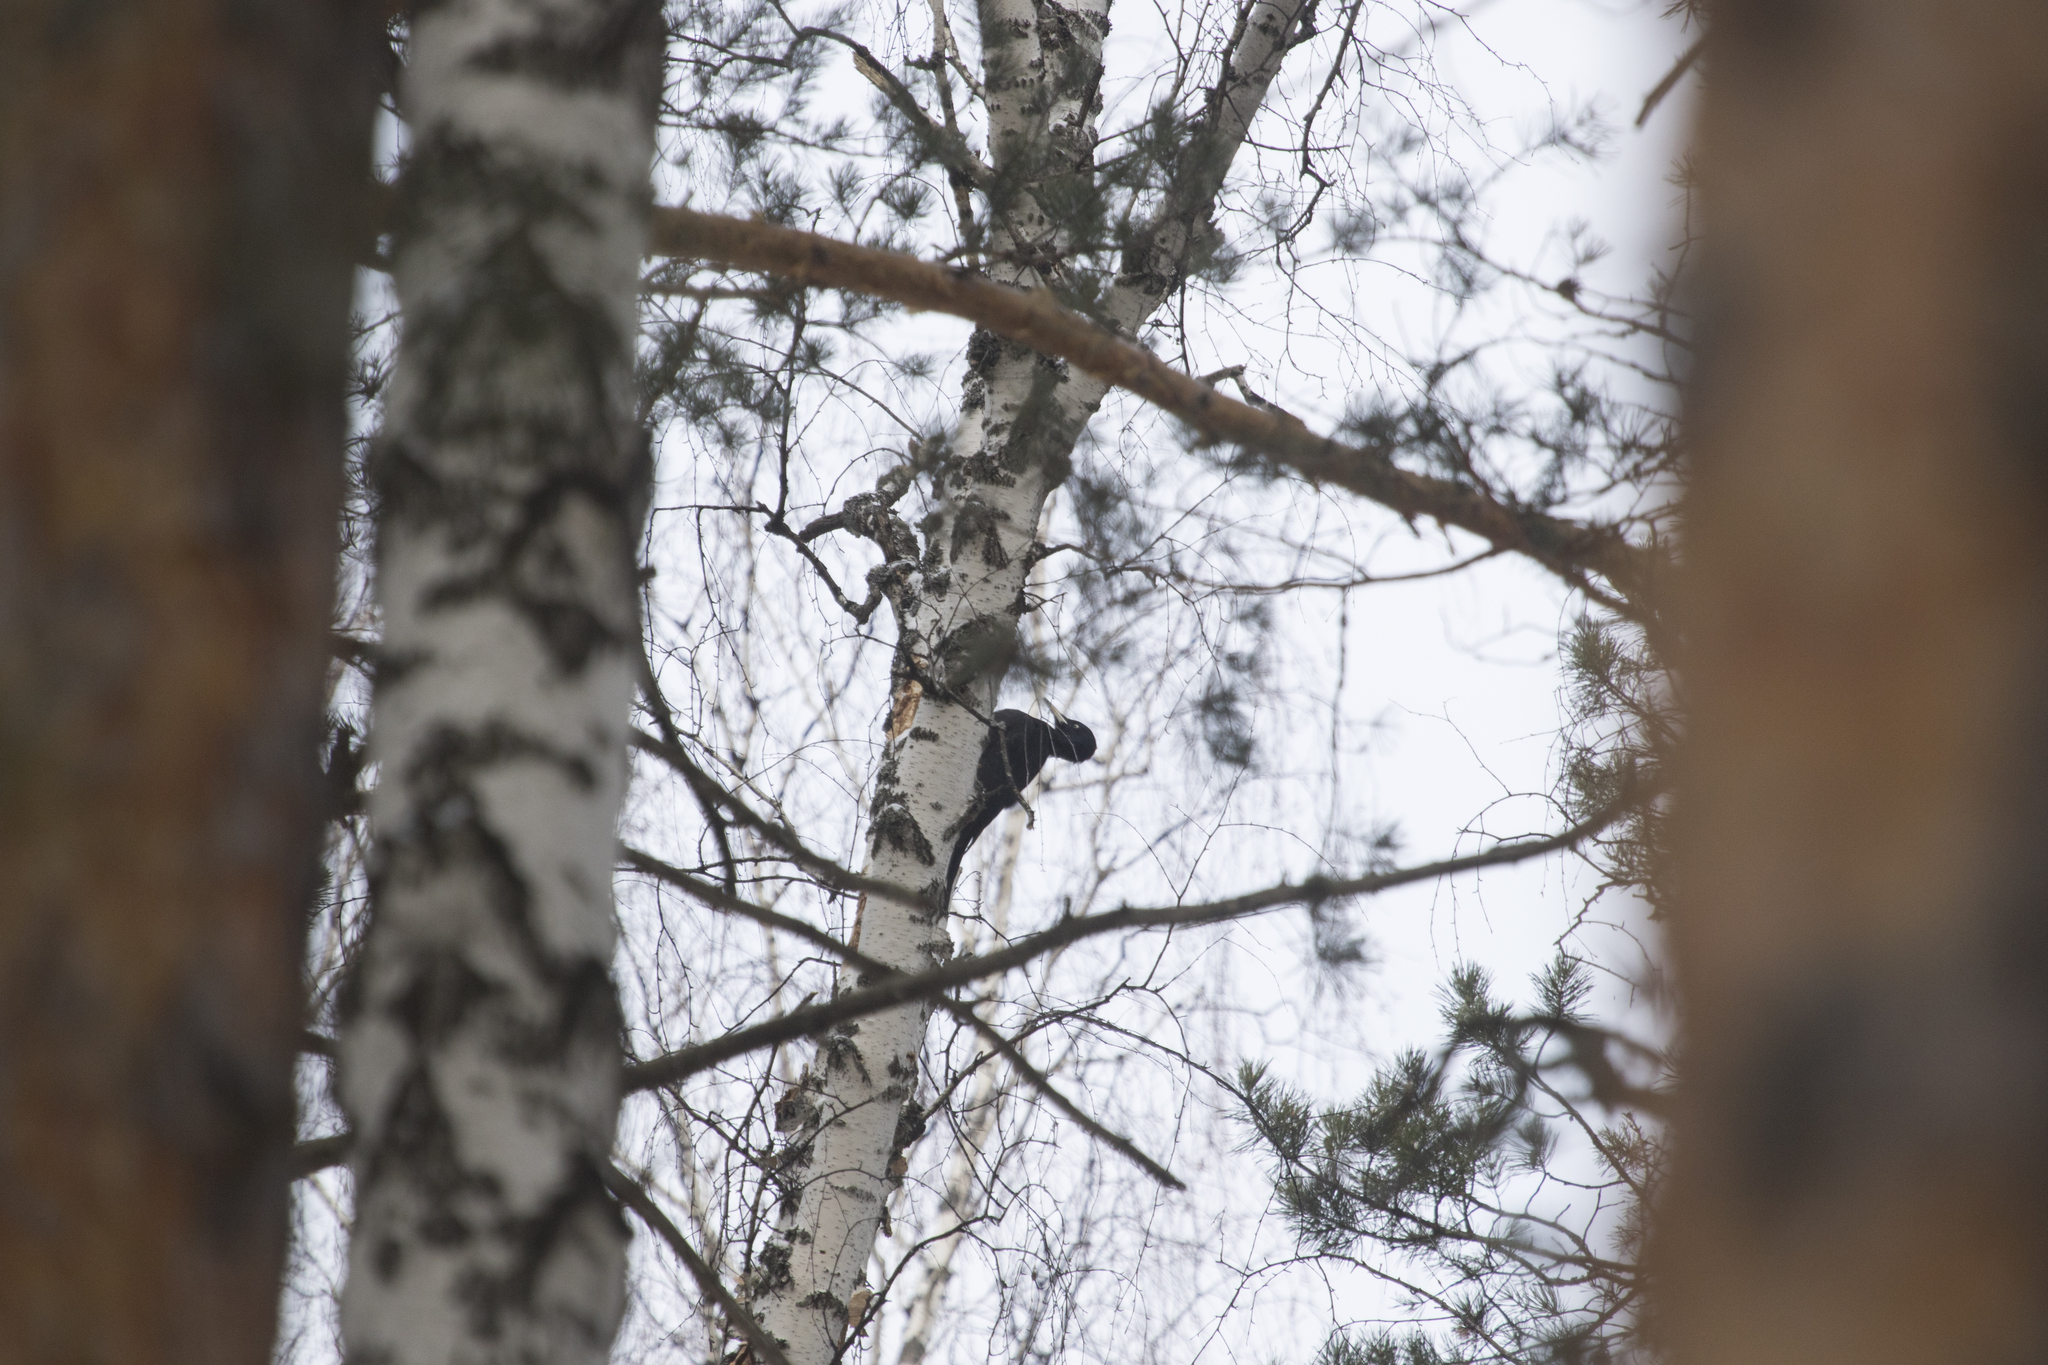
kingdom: Animalia
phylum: Chordata
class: Aves
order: Piciformes
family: Picidae
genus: Dryocopus
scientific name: Dryocopus martius
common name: Black woodpecker
